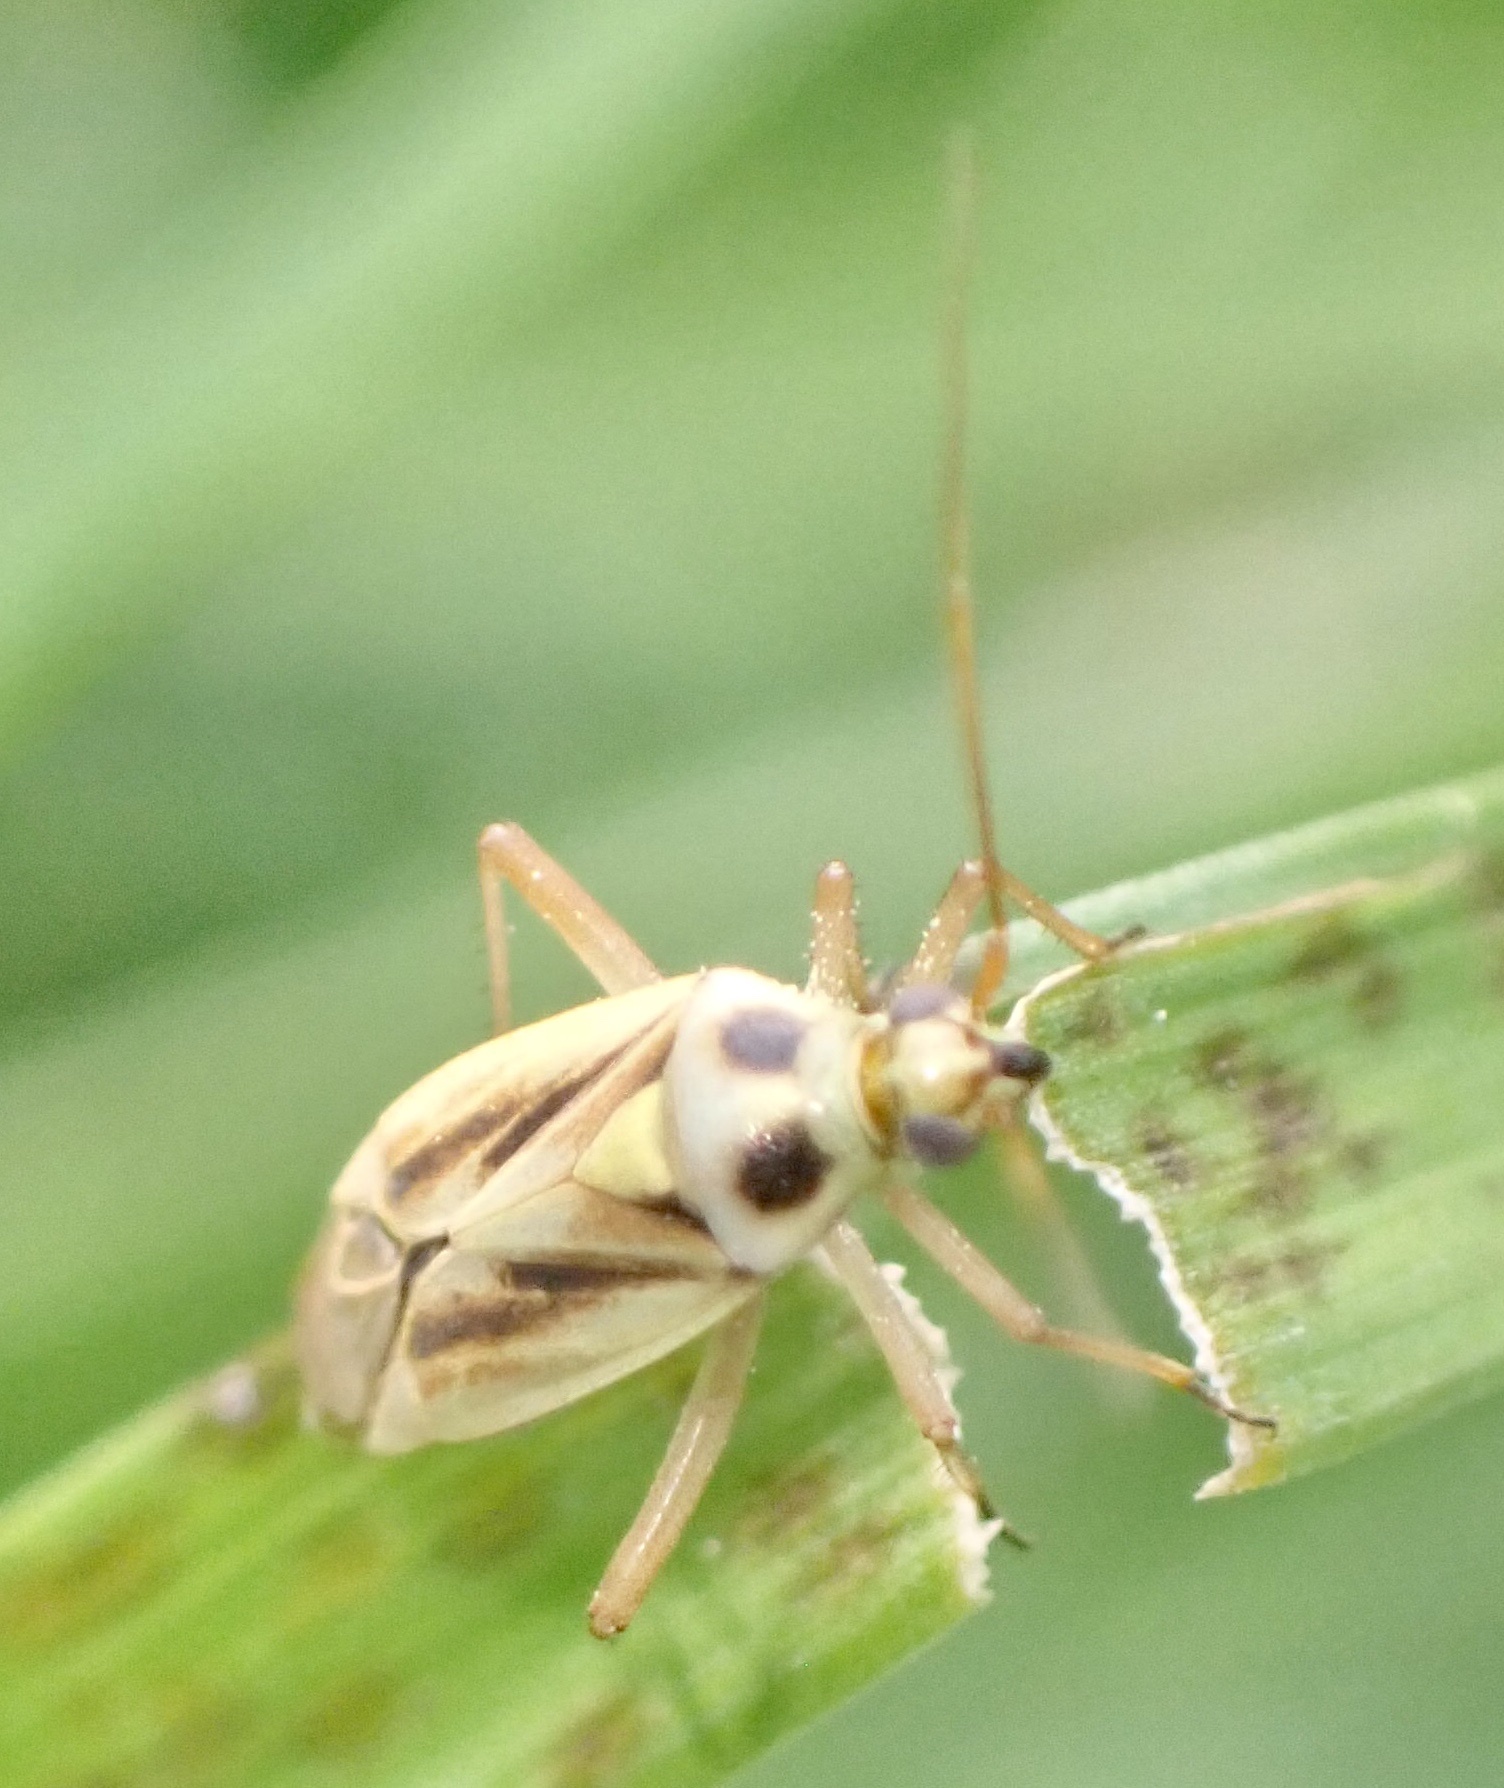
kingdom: Animalia
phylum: Arthropoda
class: Insecta
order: Hemiptera
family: Miridae
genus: Stenotus
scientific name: Stenotus binotatus
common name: Plant bug
